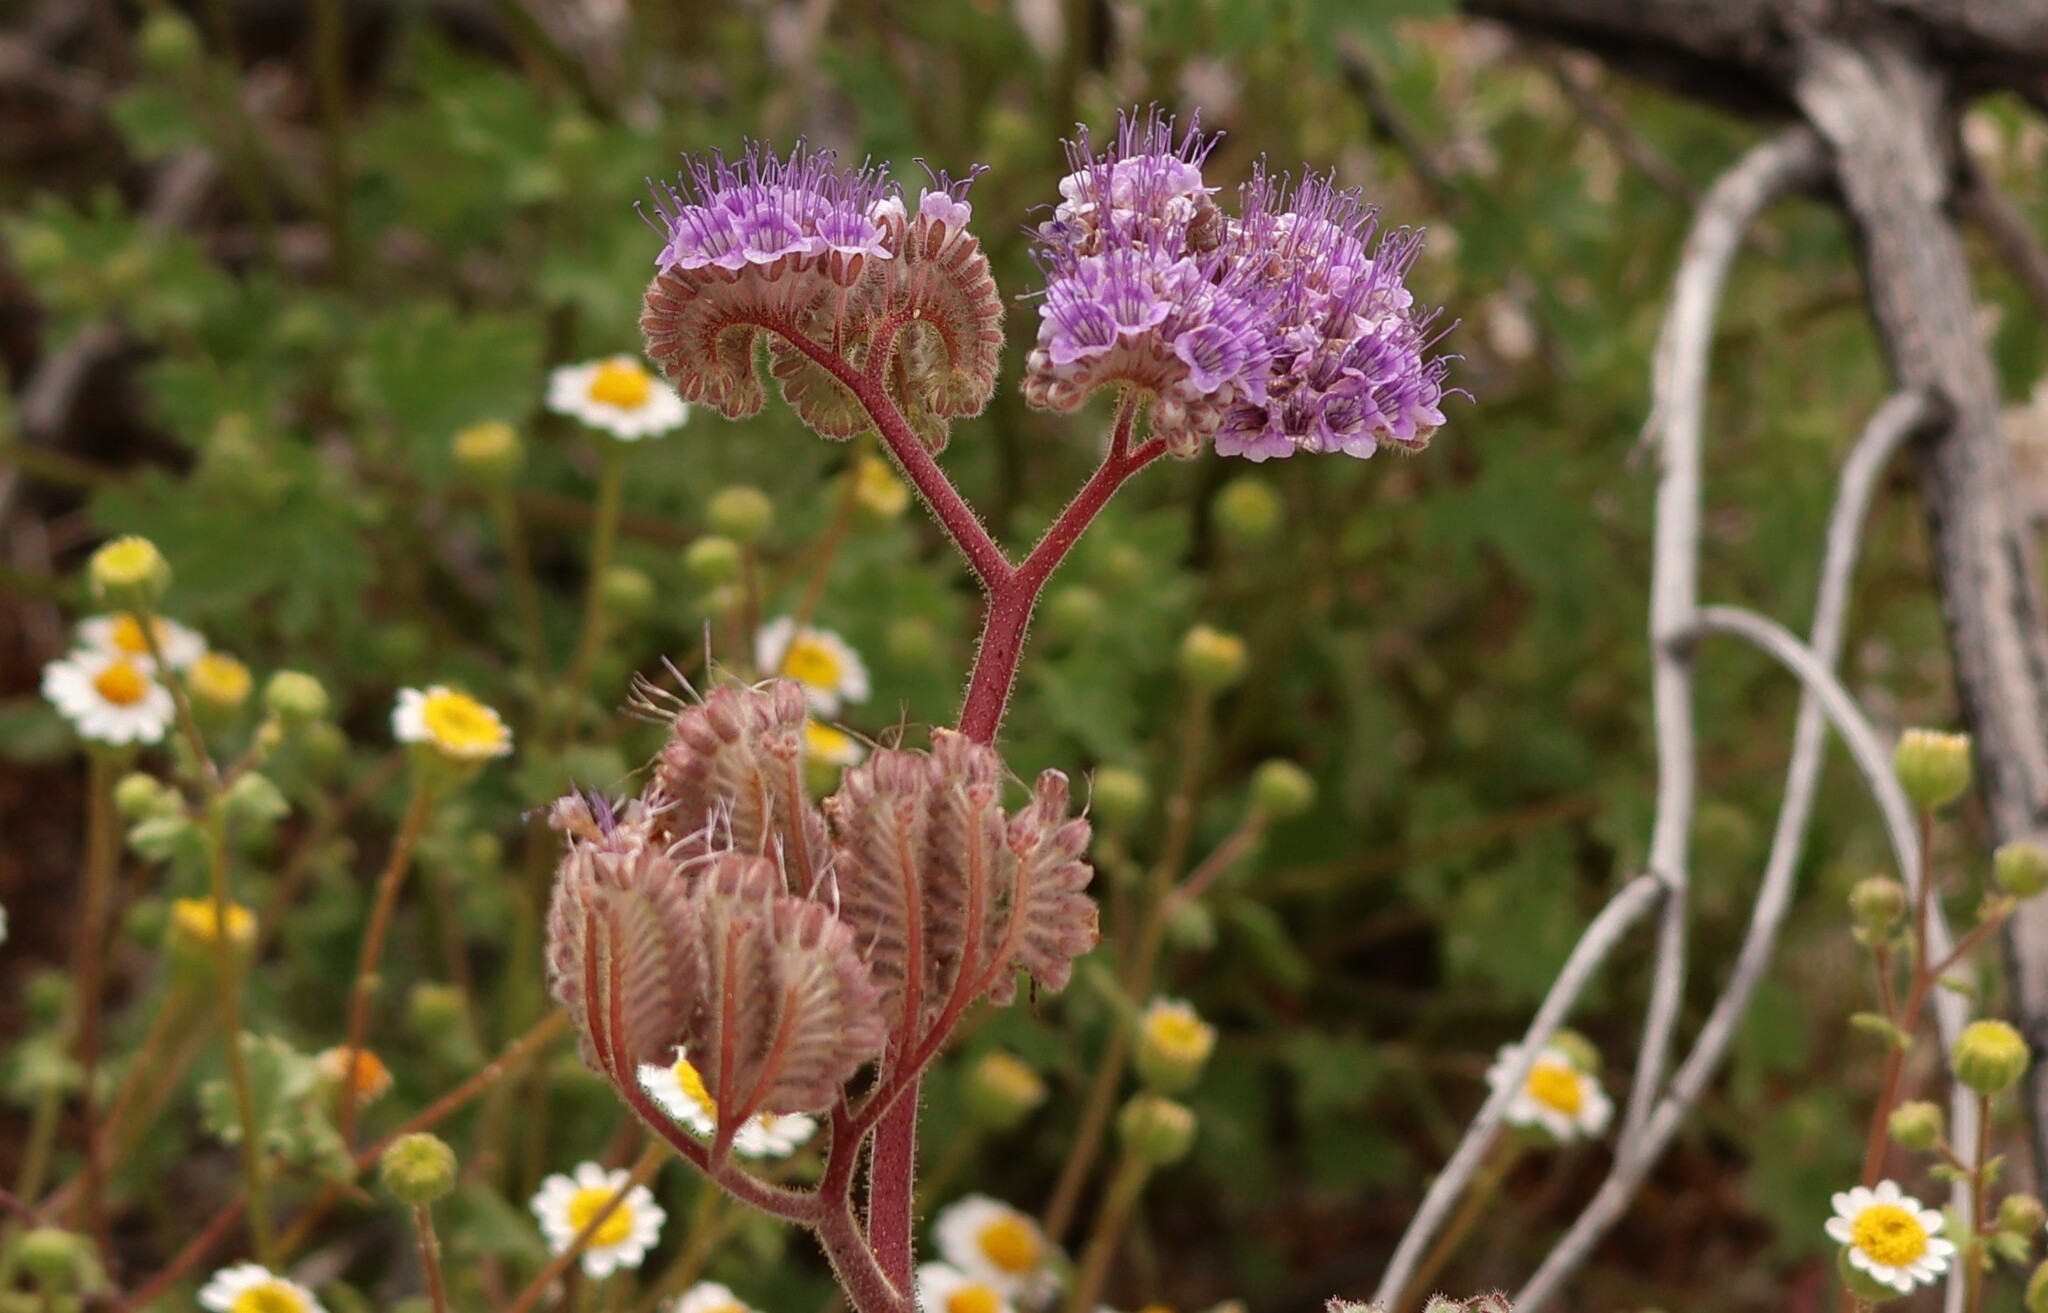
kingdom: Plantae
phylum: Tracheophyta
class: Magnoliopsida
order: Boraginales
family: Hydrophyllaceae
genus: Phacelia
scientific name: Phacelia pedicellata
